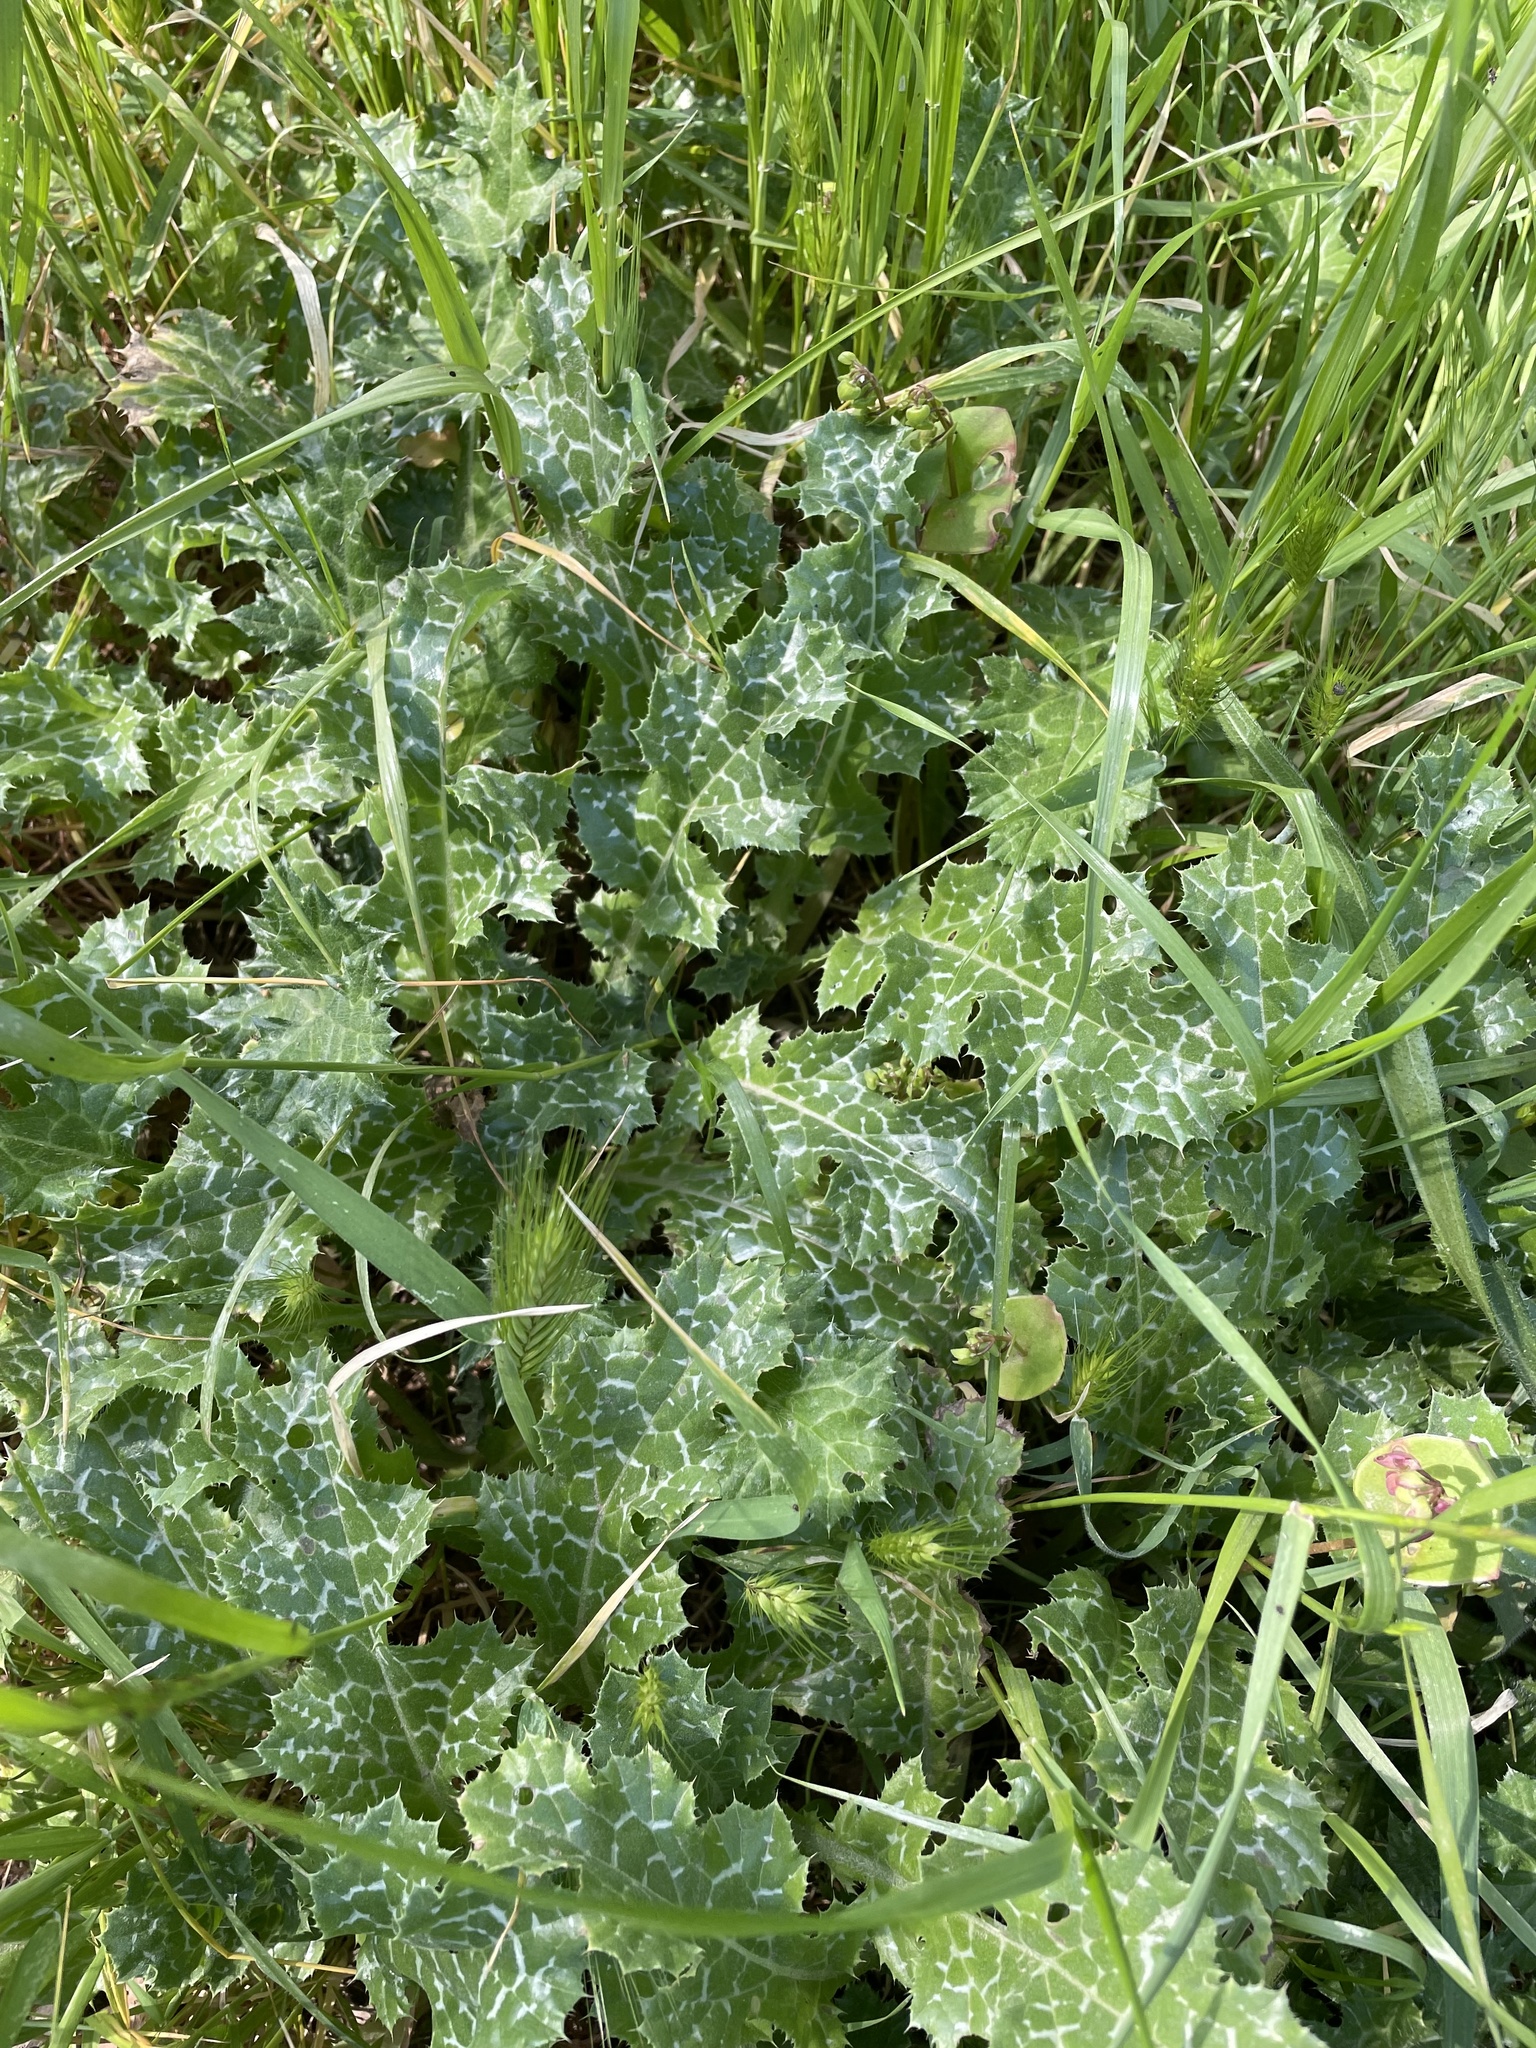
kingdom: Plantae
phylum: Tracheophyta
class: Magnoliopsida
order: Asterales
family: Asteraceae
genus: Silybum
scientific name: Silybum marianum
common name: Milk thistle
